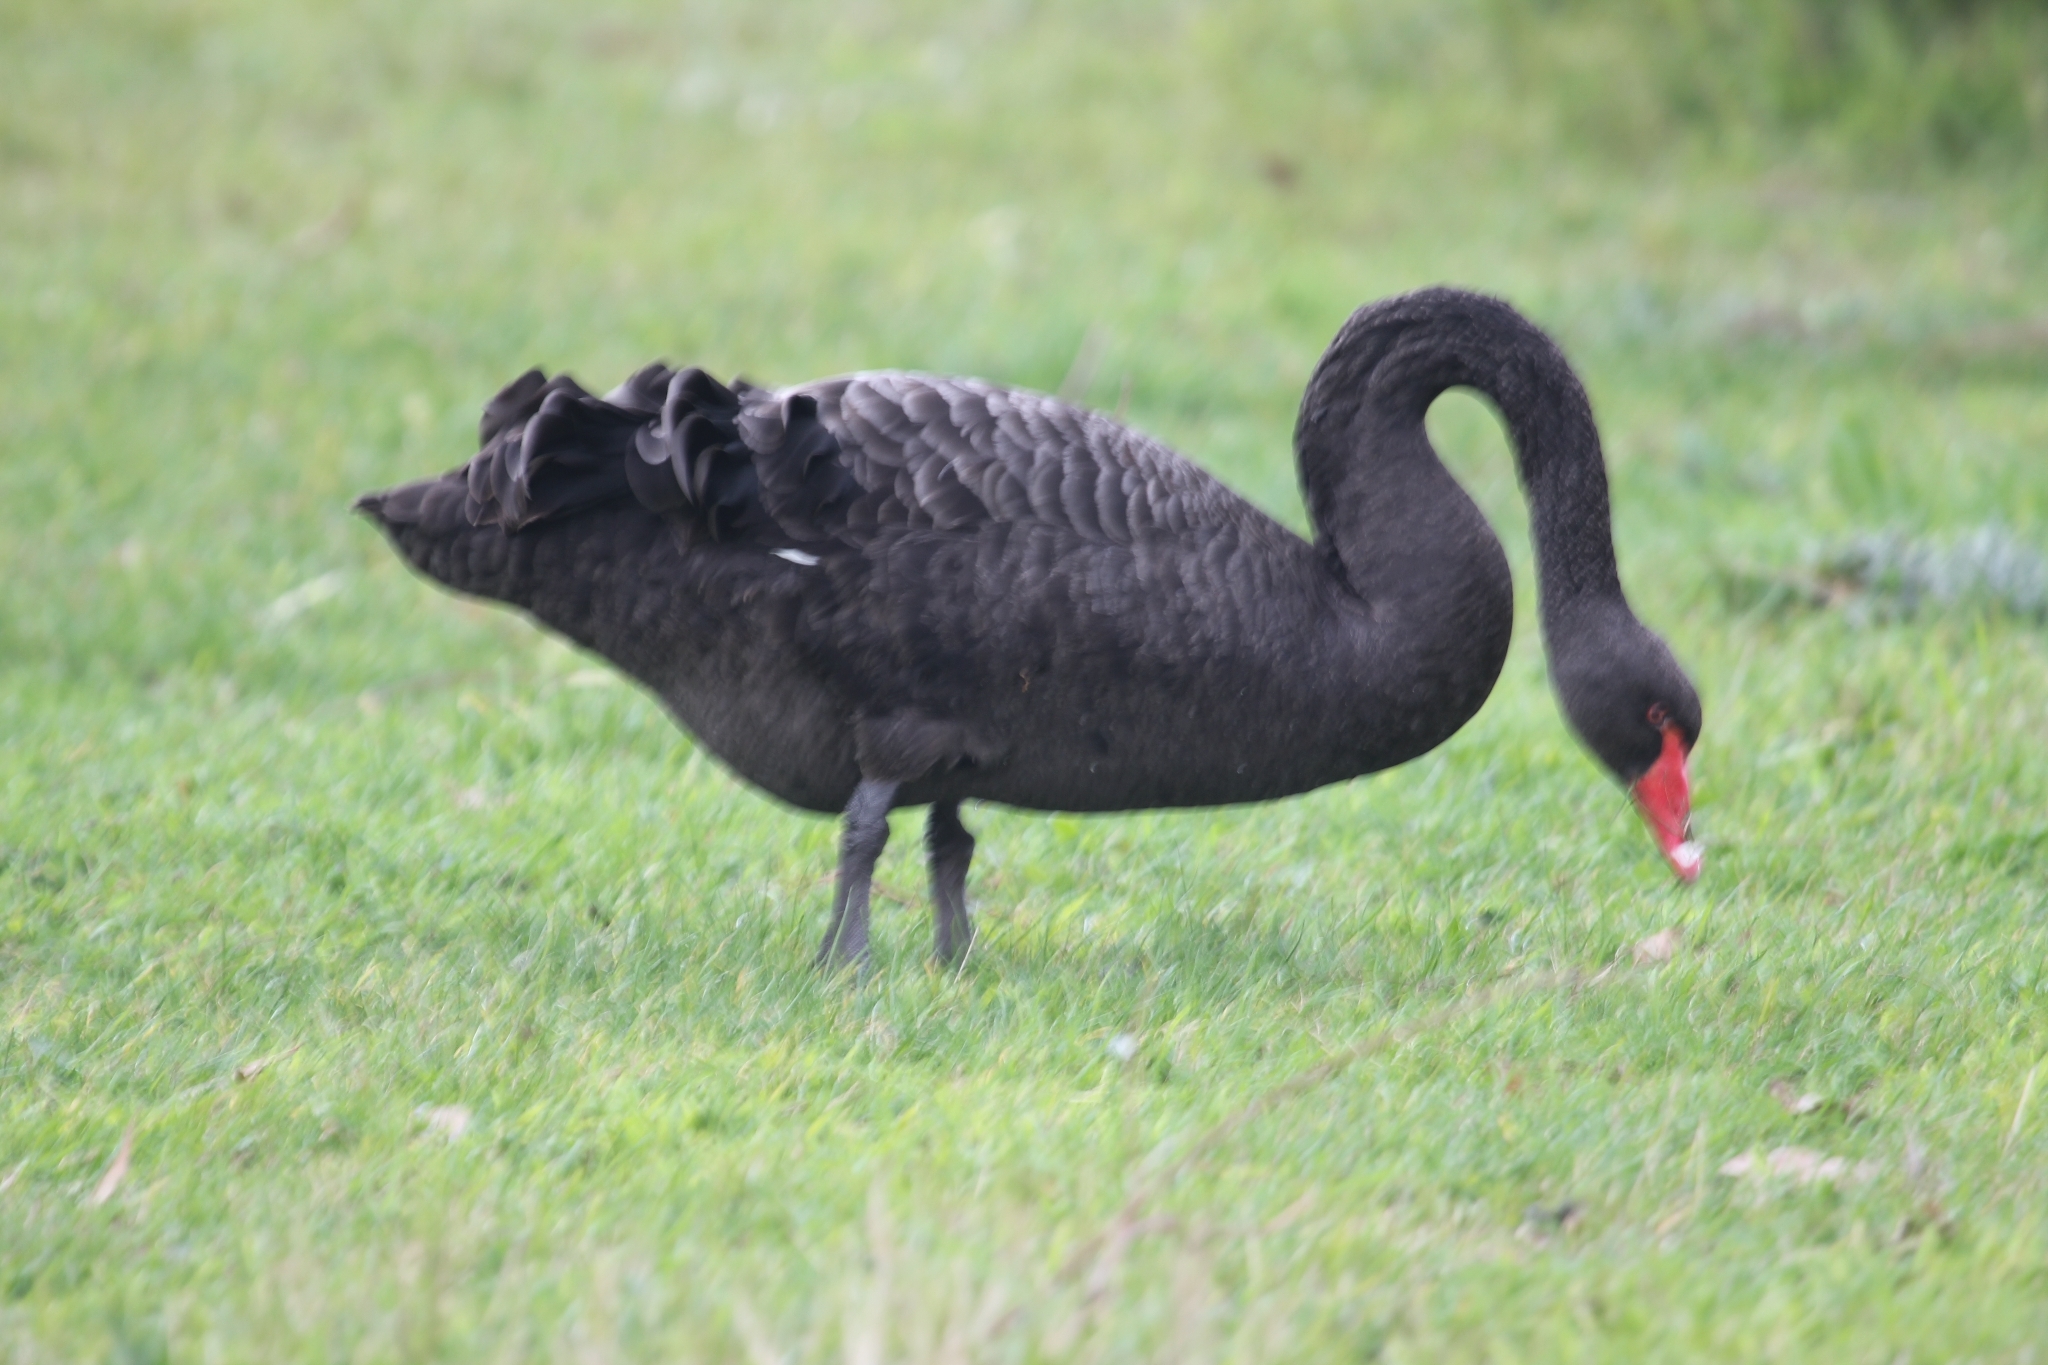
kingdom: Animalia
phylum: Chordata
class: Aves
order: Anseriformes
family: Anatidae
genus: Cygnus
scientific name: Cygnus atratus
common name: Black swan
